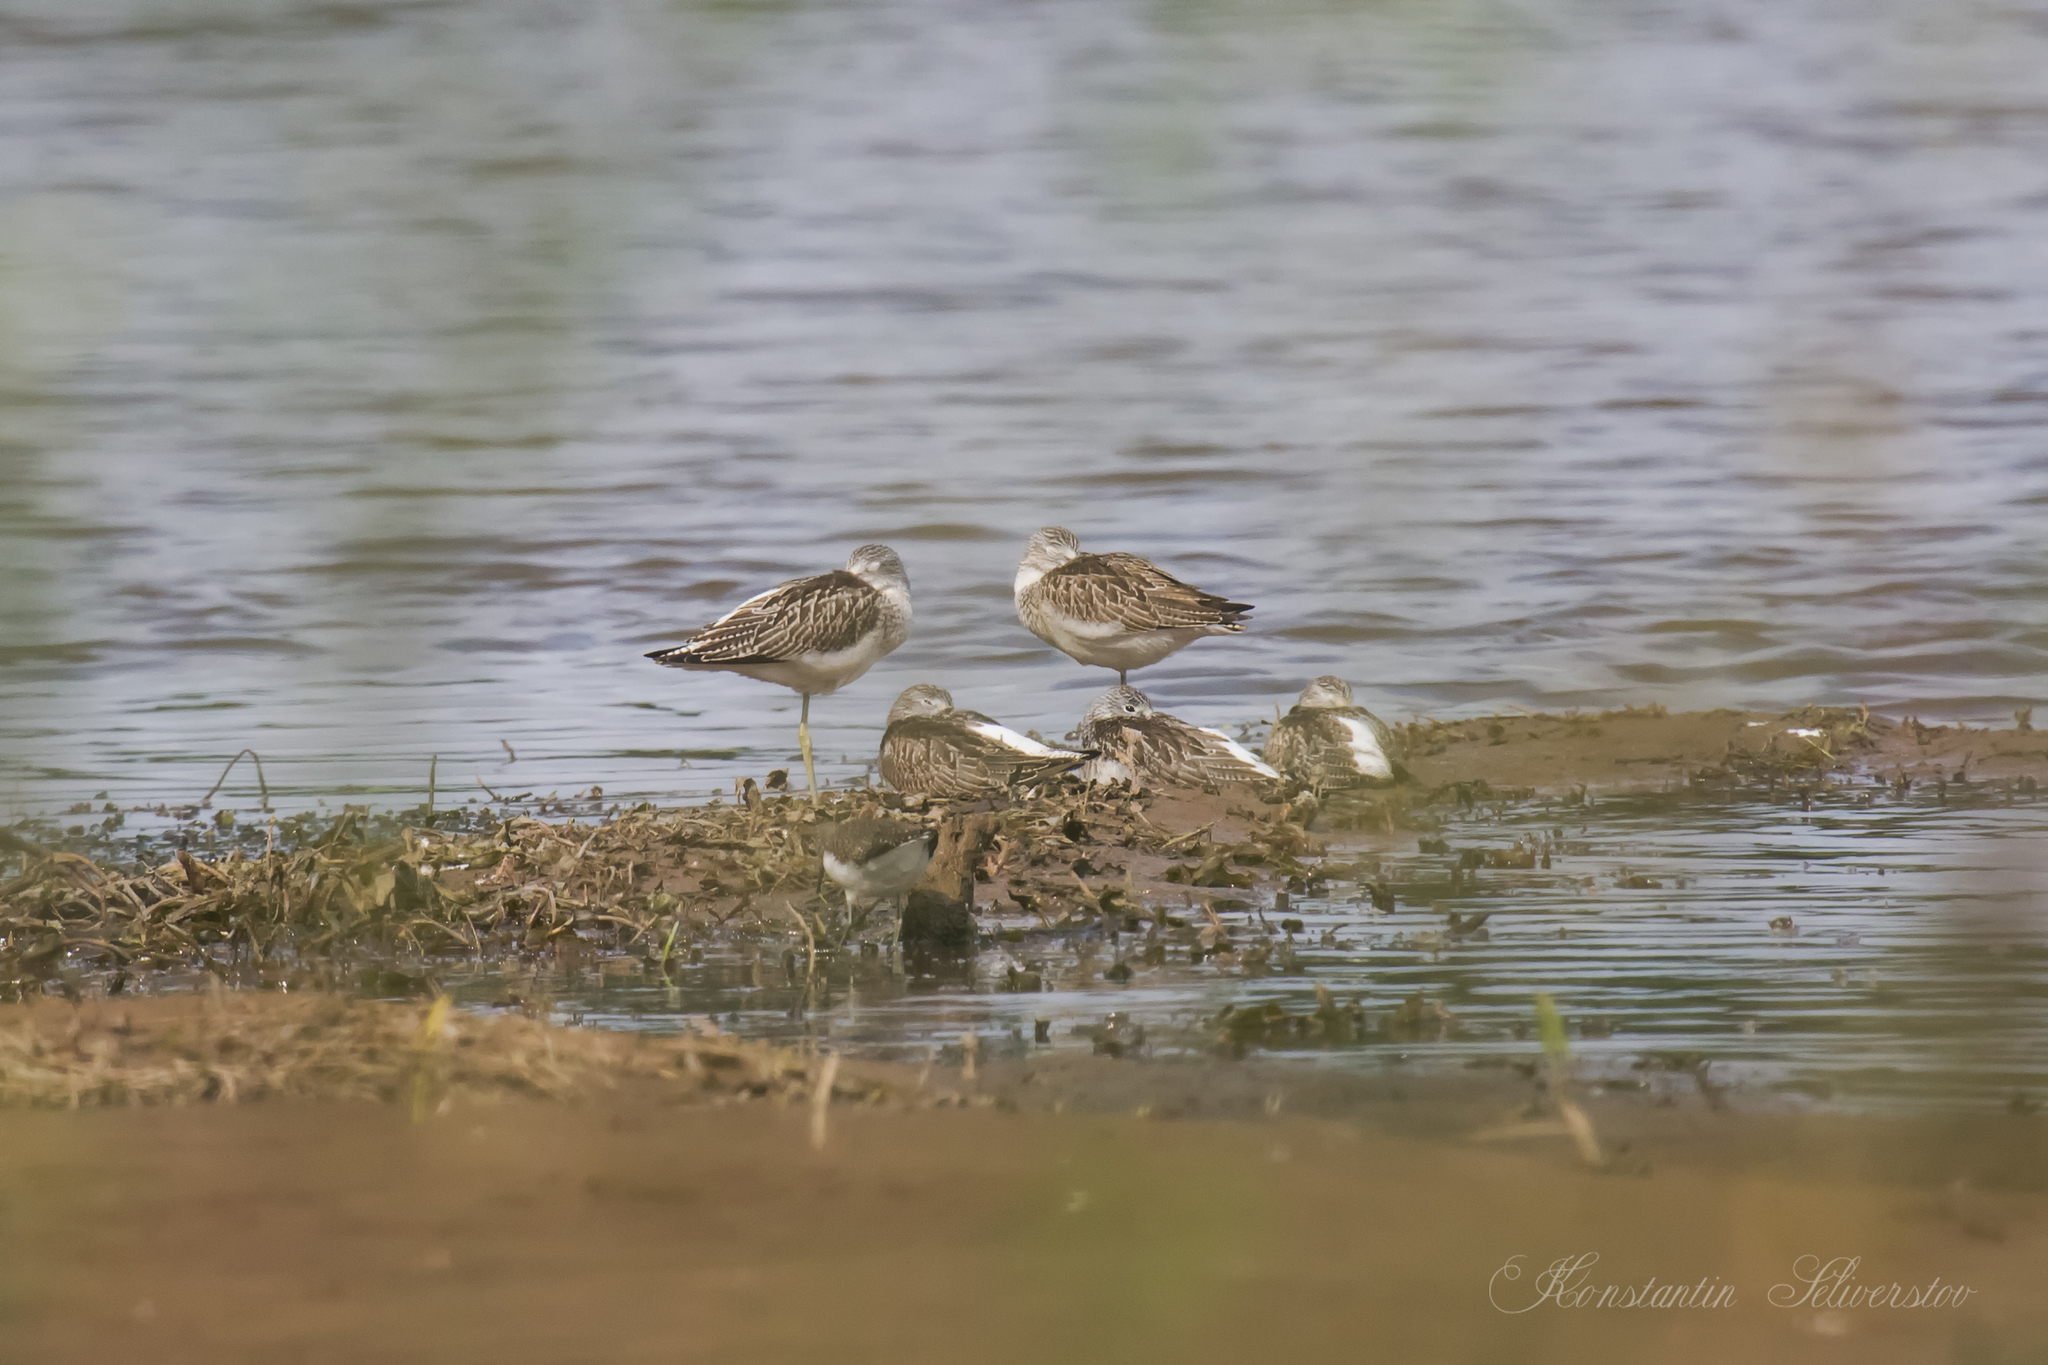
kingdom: Animalia
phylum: Chordata
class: Aves
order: Charadriiformes
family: Scolopacidae
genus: Tringa
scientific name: Tringa nebularia
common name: Common greenshank
